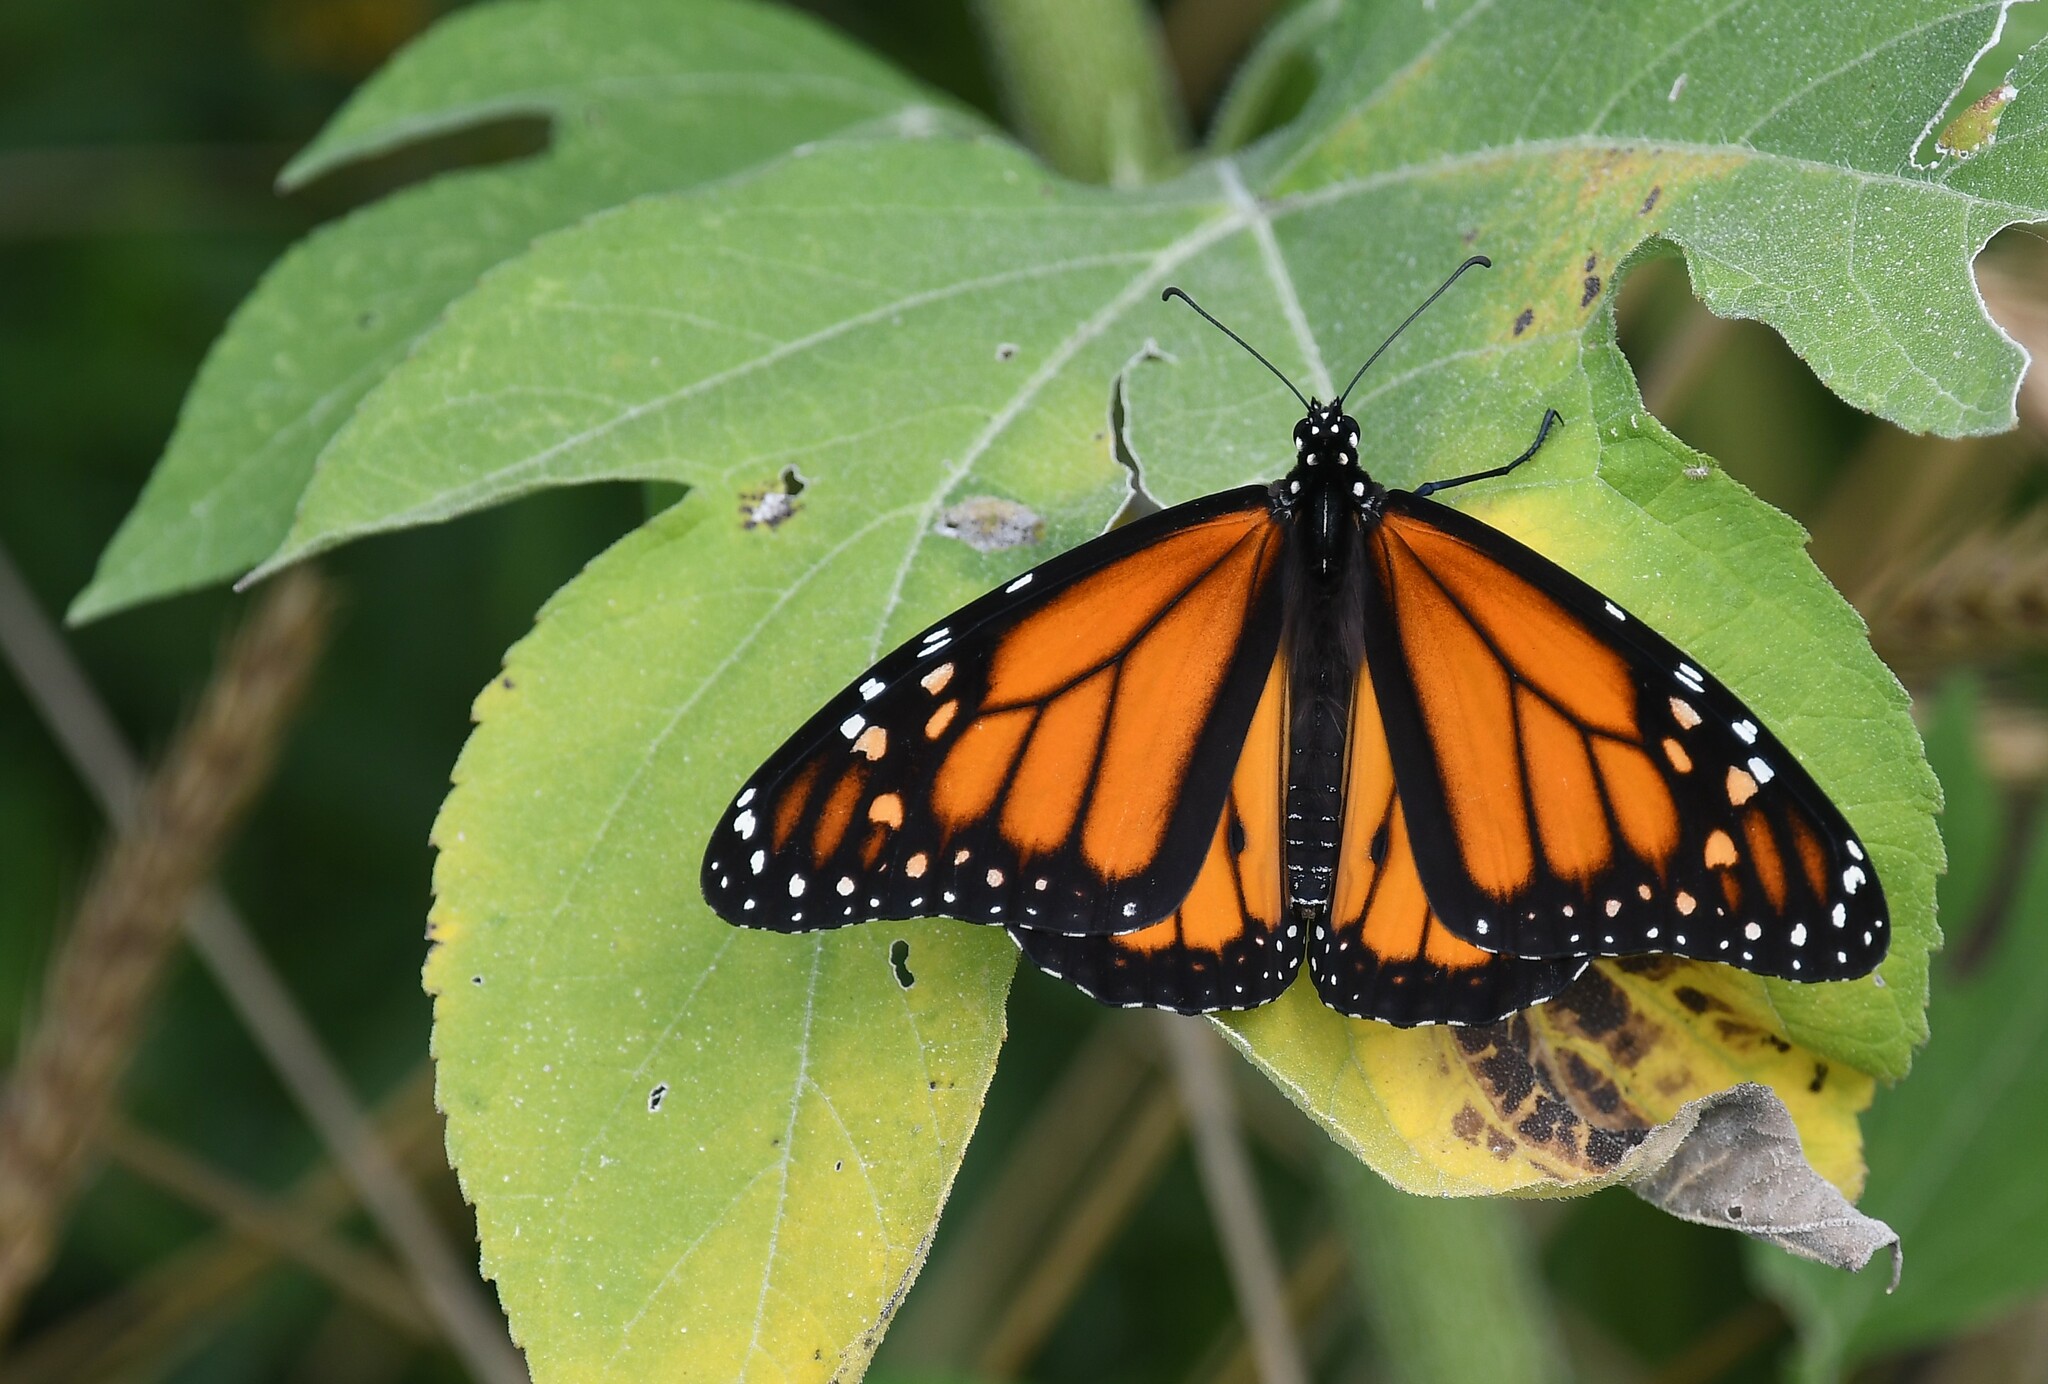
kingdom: Animalia
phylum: Arthropoda
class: Insecta
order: Lepidoptera
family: Nymphalidae
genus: Danaus
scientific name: Danaus plexippus
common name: Monarch
